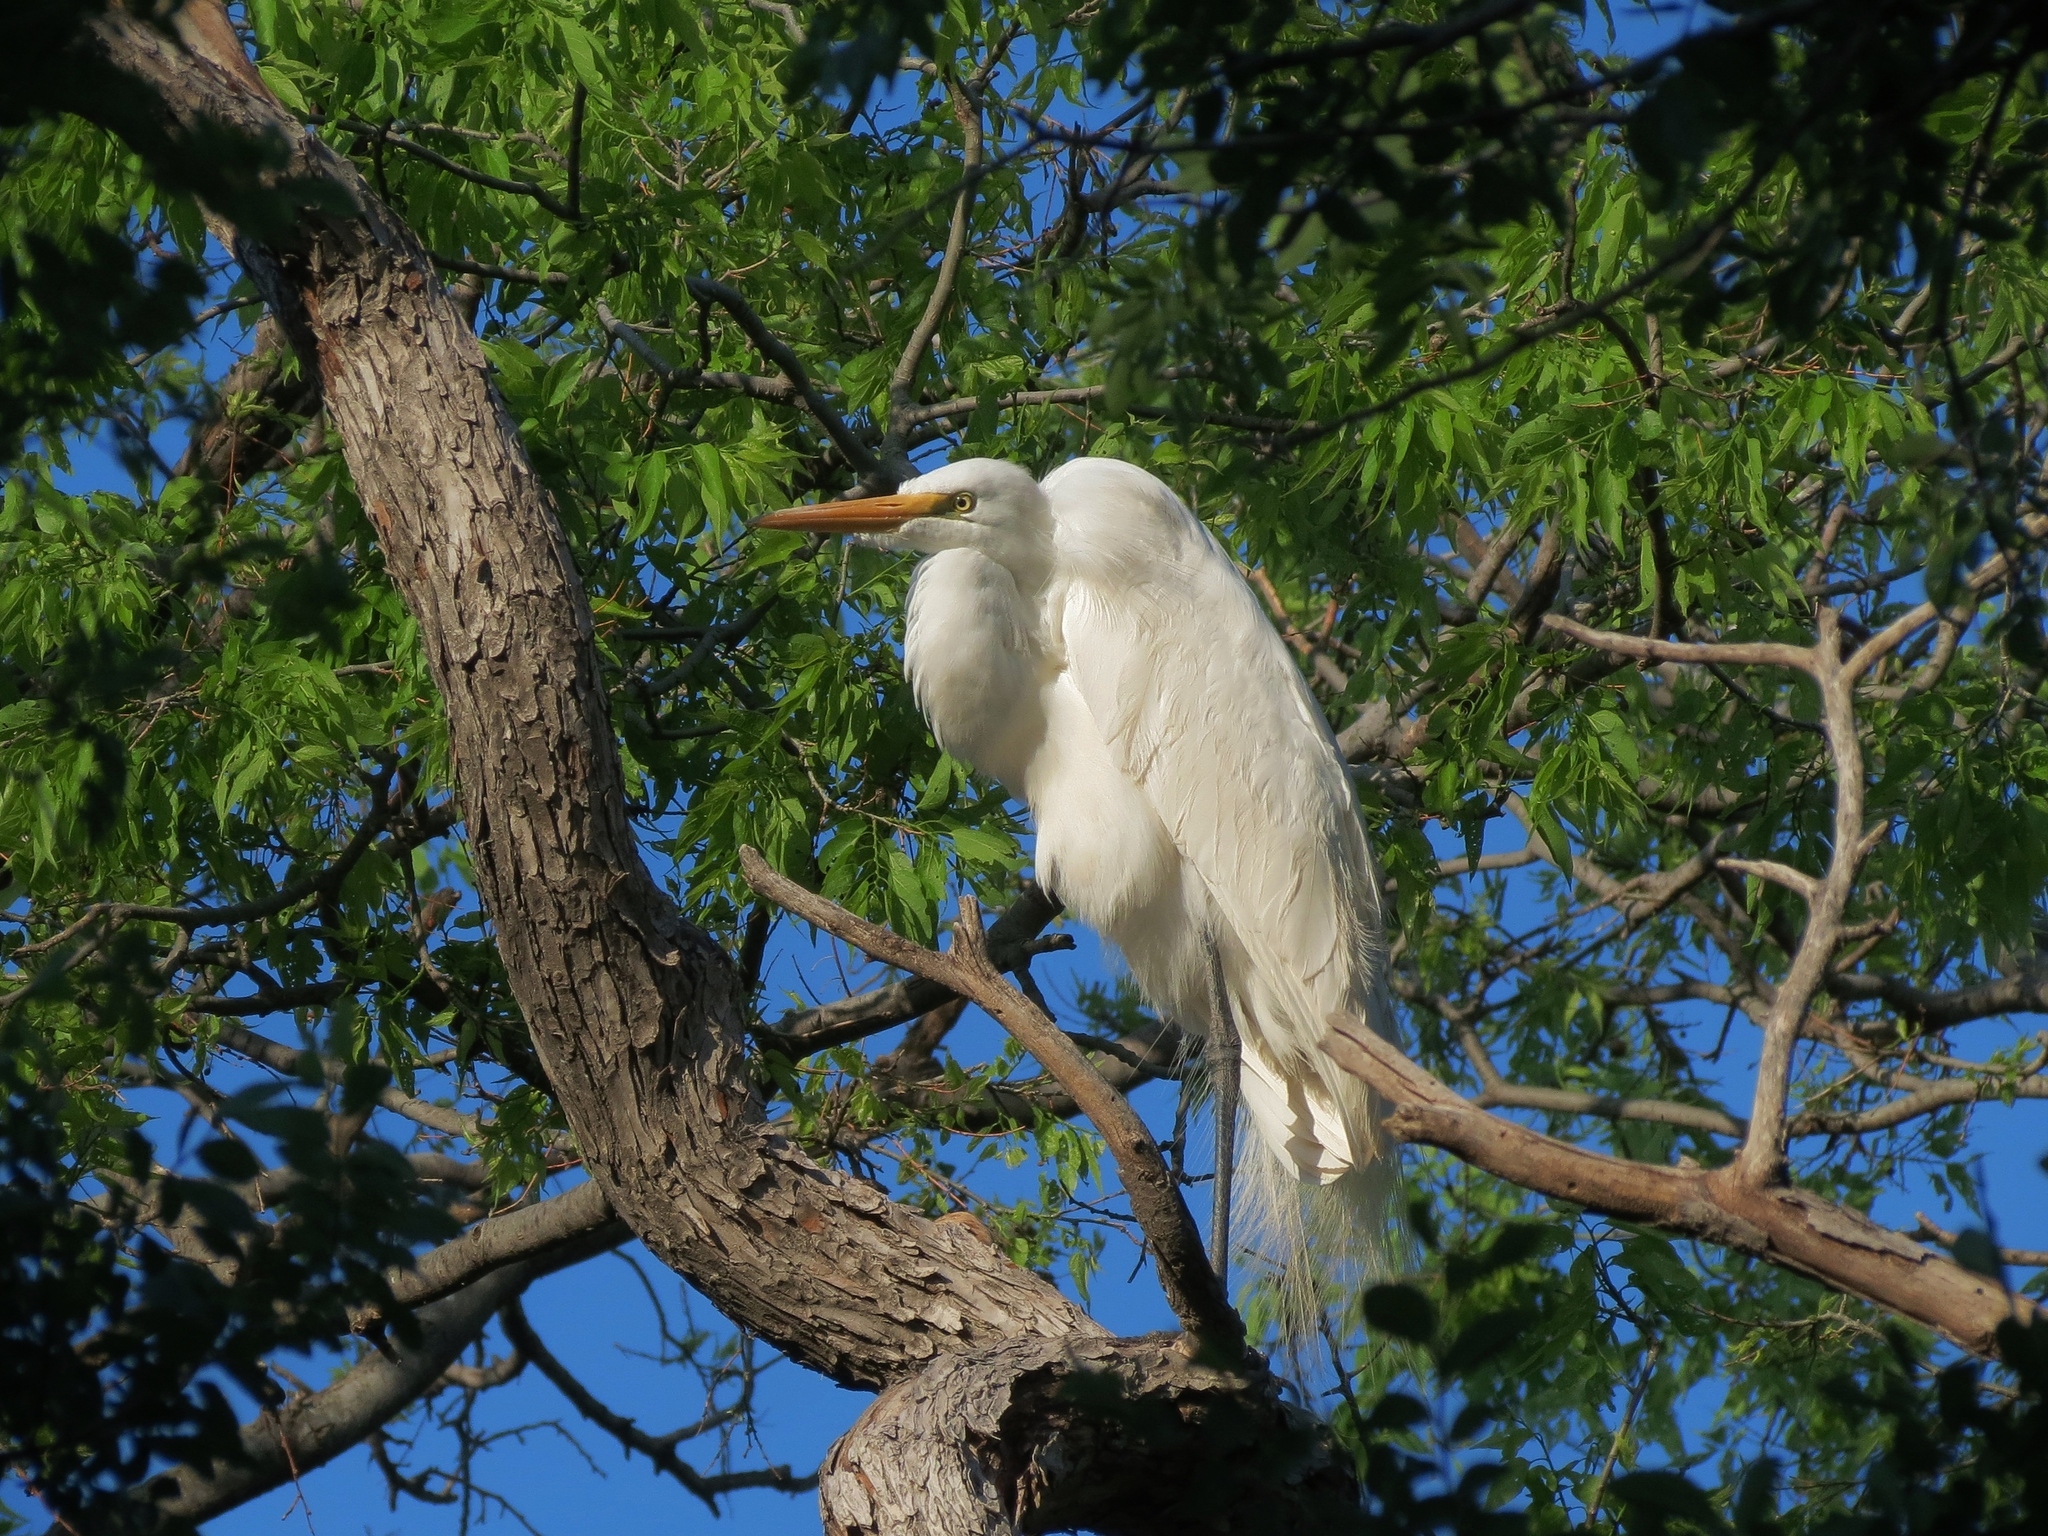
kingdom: Animalia
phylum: Chordata
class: Aves
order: Pelecaniformes
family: Ardeidae
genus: Ardea
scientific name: Ardea alba
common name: Great egret
